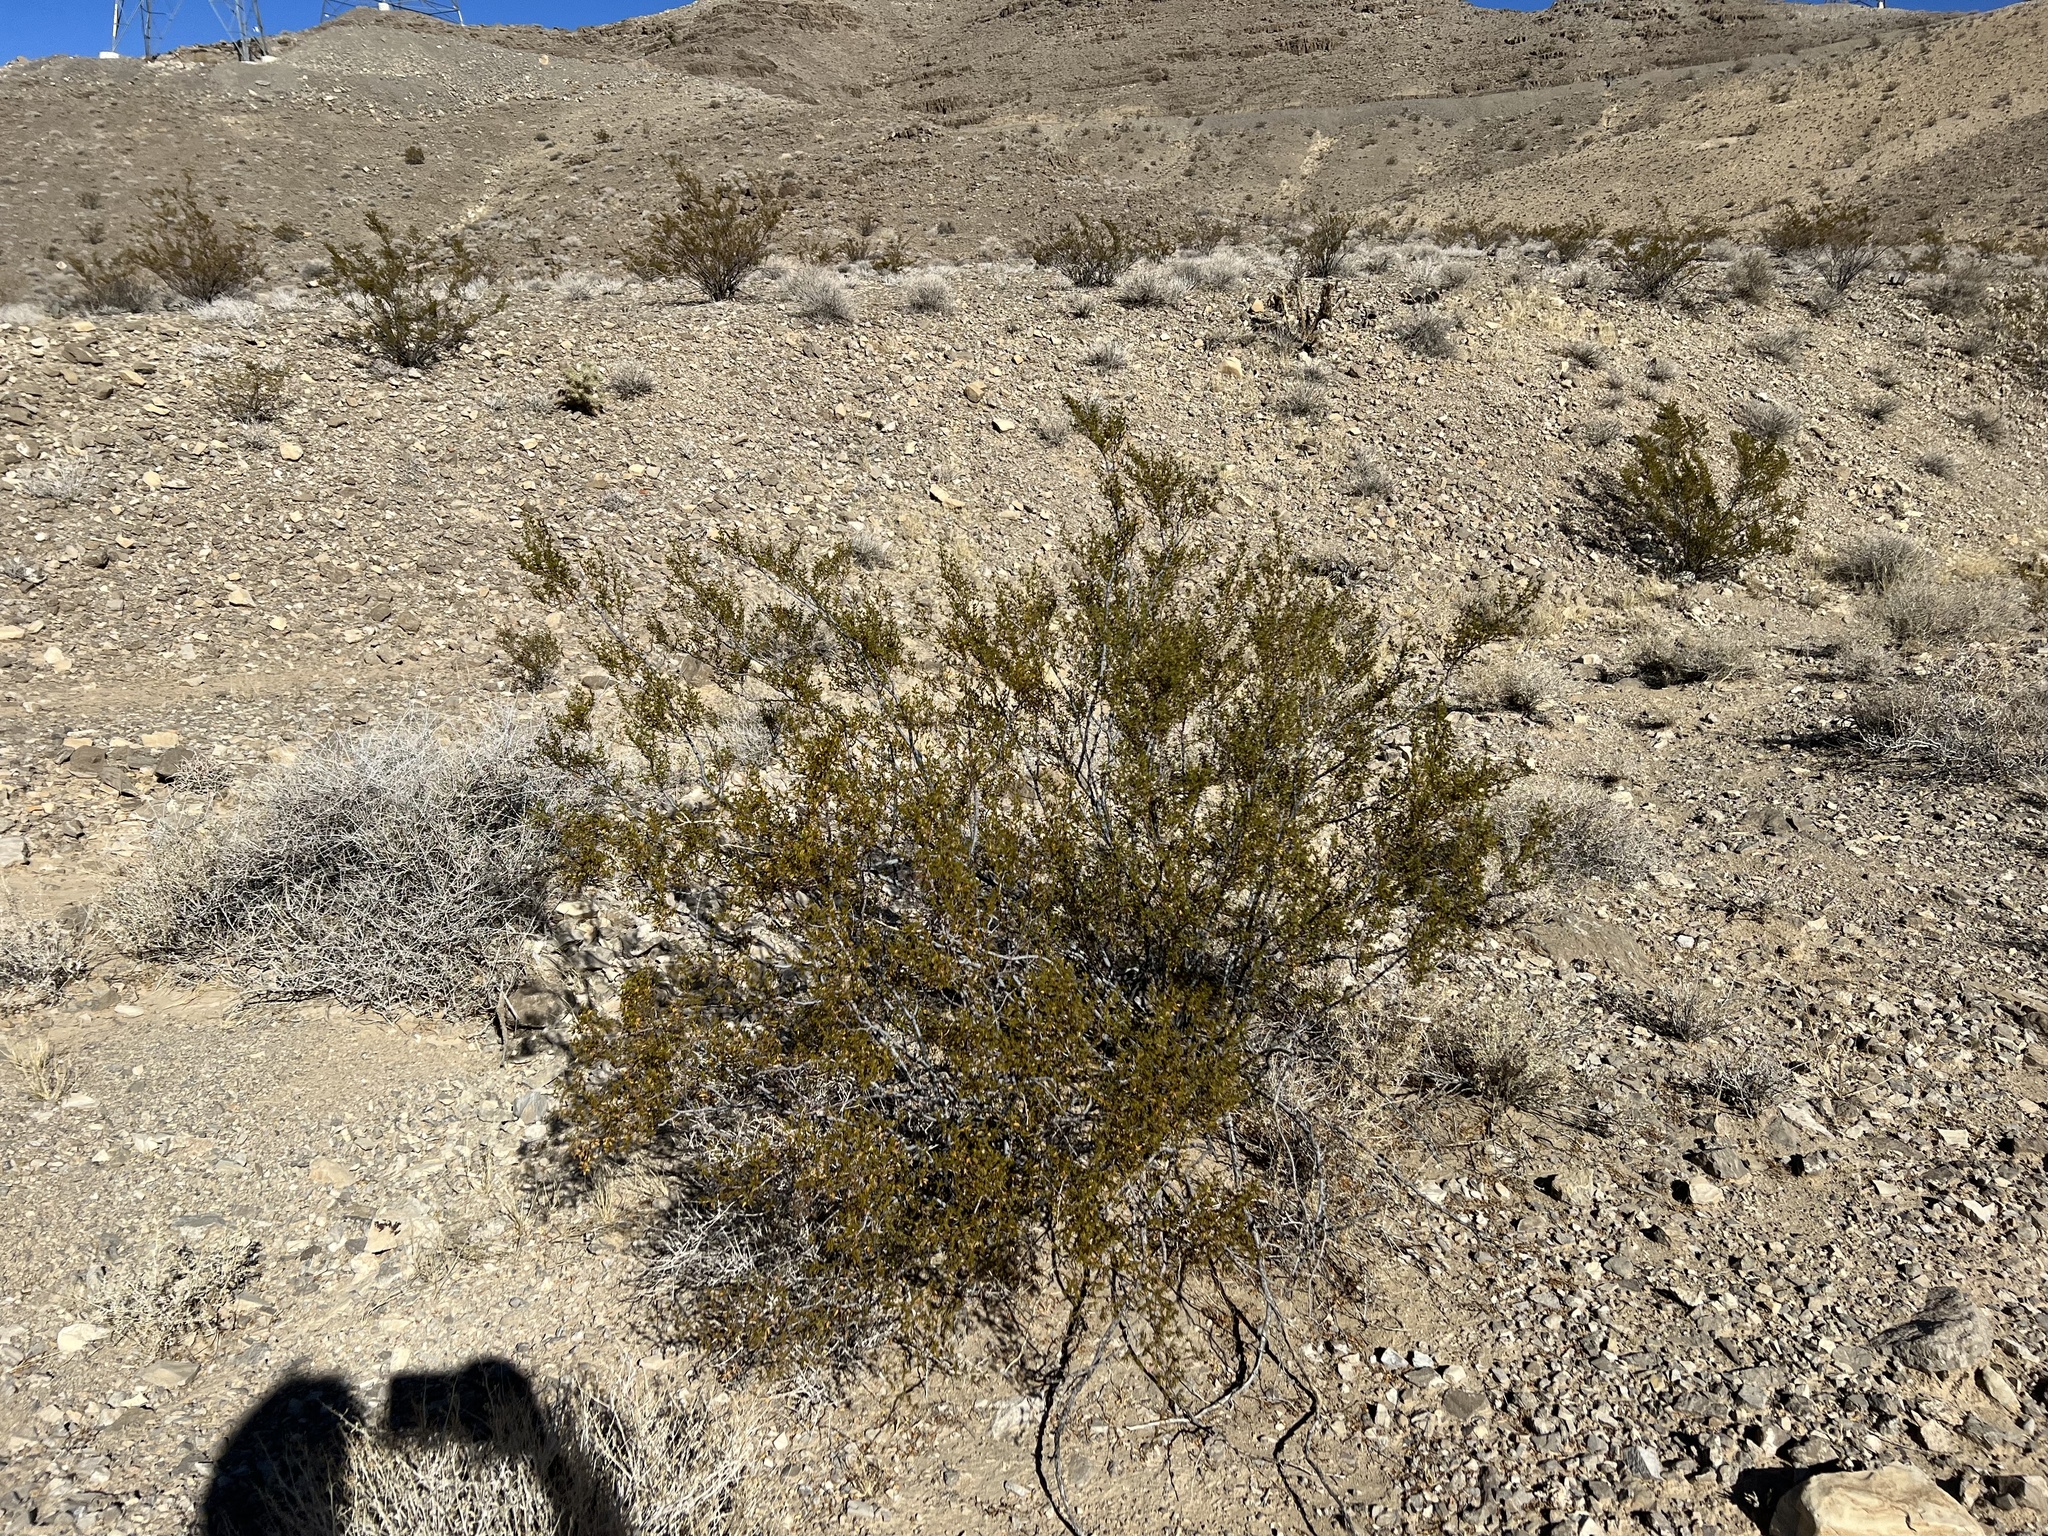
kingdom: Plantae
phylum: Tracheophyta
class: Magnoliopsida
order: Zygophyllales
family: Zygophyllaceae
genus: Larrea
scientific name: Larrea tridentata
